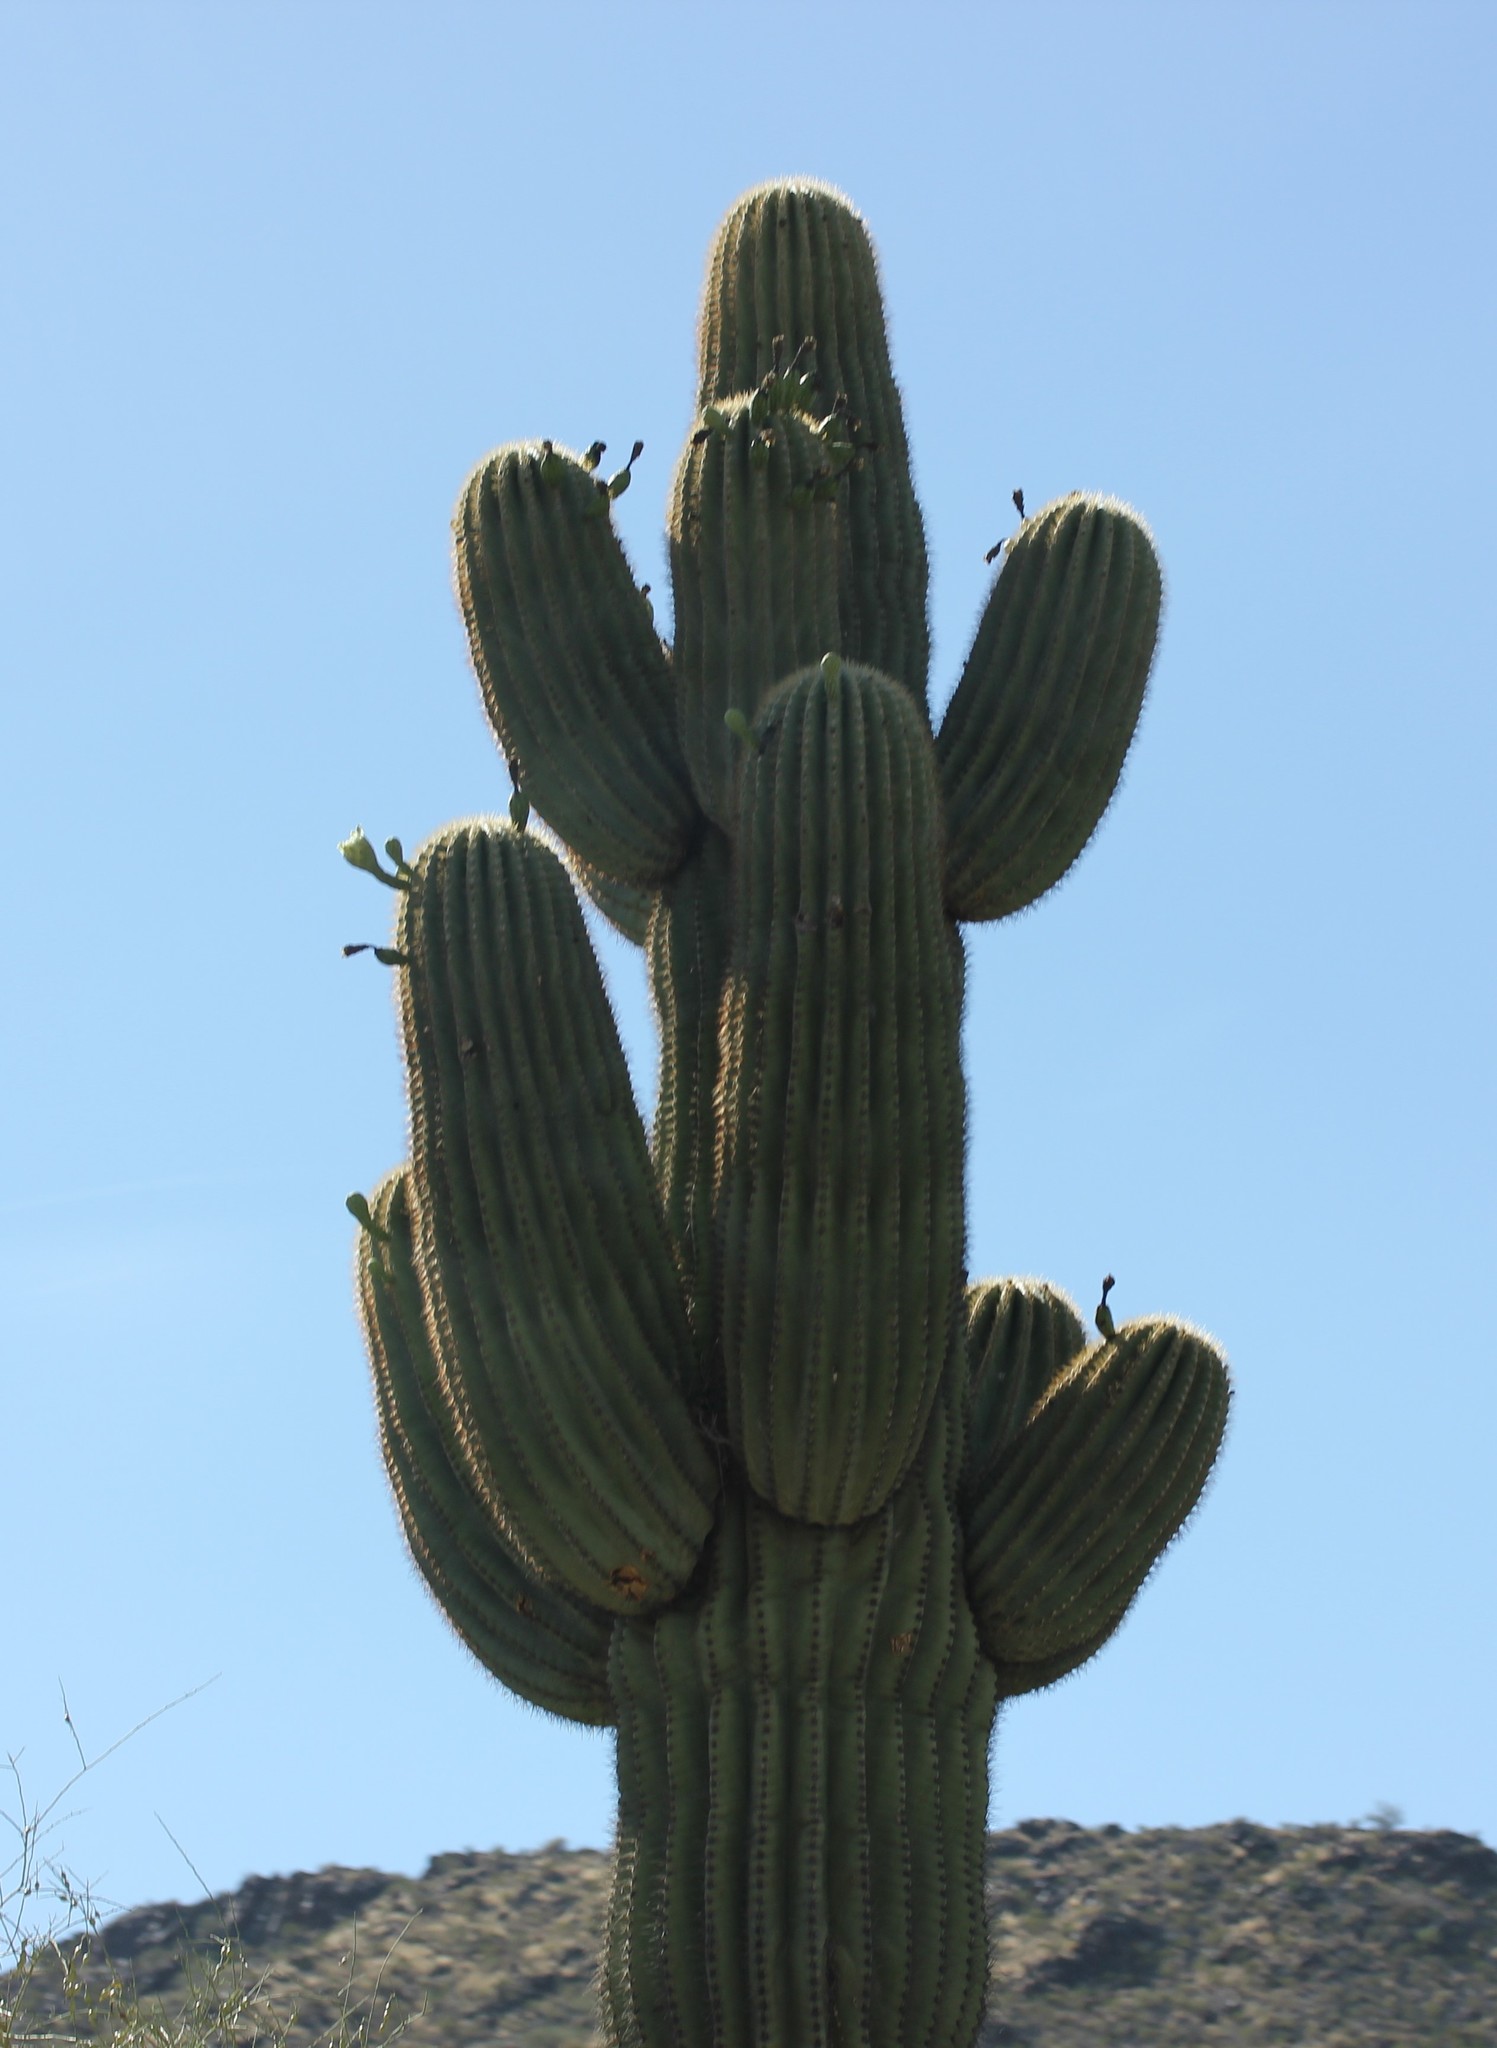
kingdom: Plantae
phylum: Tracheophyta
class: Magnoliopsida
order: Caryophyllales
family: Cactaceae
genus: Carnegiea
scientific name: Carnegiea gigantea
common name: Saguaro
